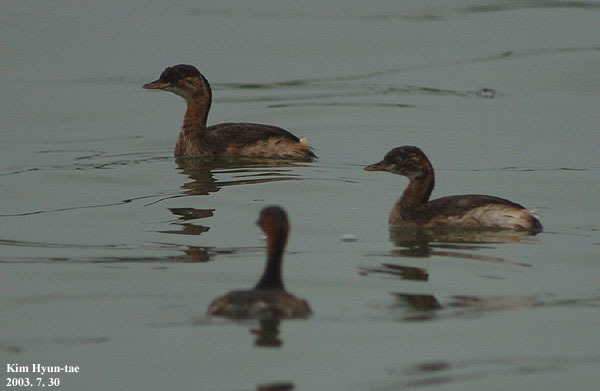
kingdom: Animalia
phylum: Chordata
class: Aves
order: Podicipediformes
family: Podicipedidae
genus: Tachybaptus
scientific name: Tachybaptus ruficollis
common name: Little grebe
